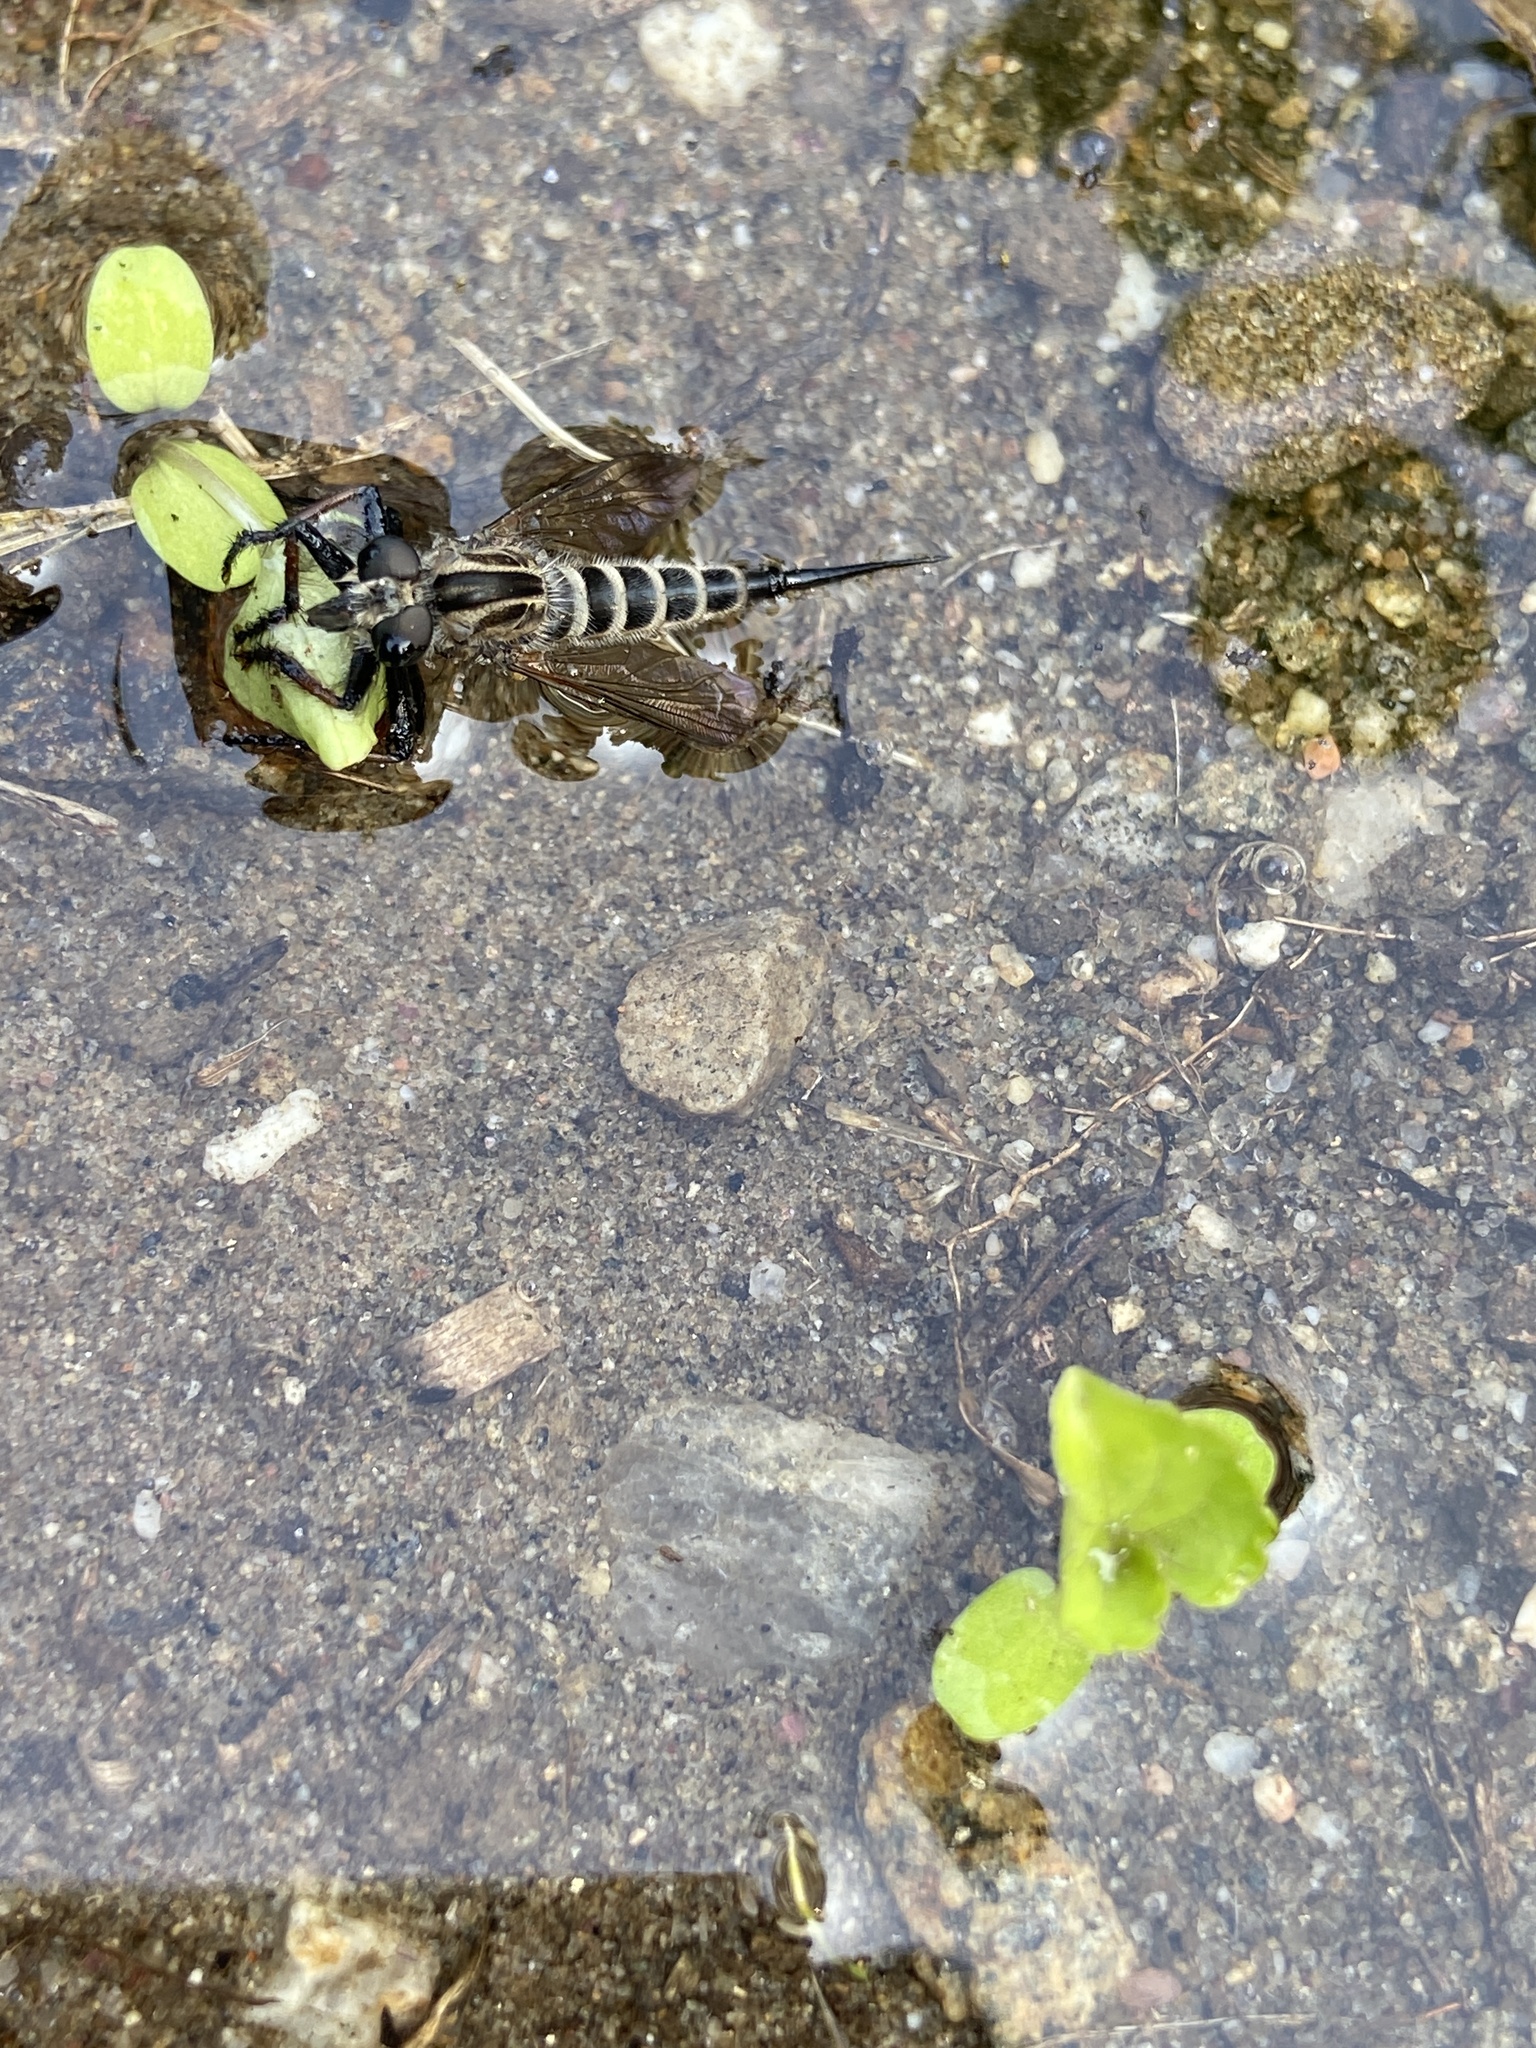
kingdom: Animalia
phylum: Arthropoda
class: Insecta
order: Diptera
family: Asilidae
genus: Efferia
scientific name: Efferia aestuans
